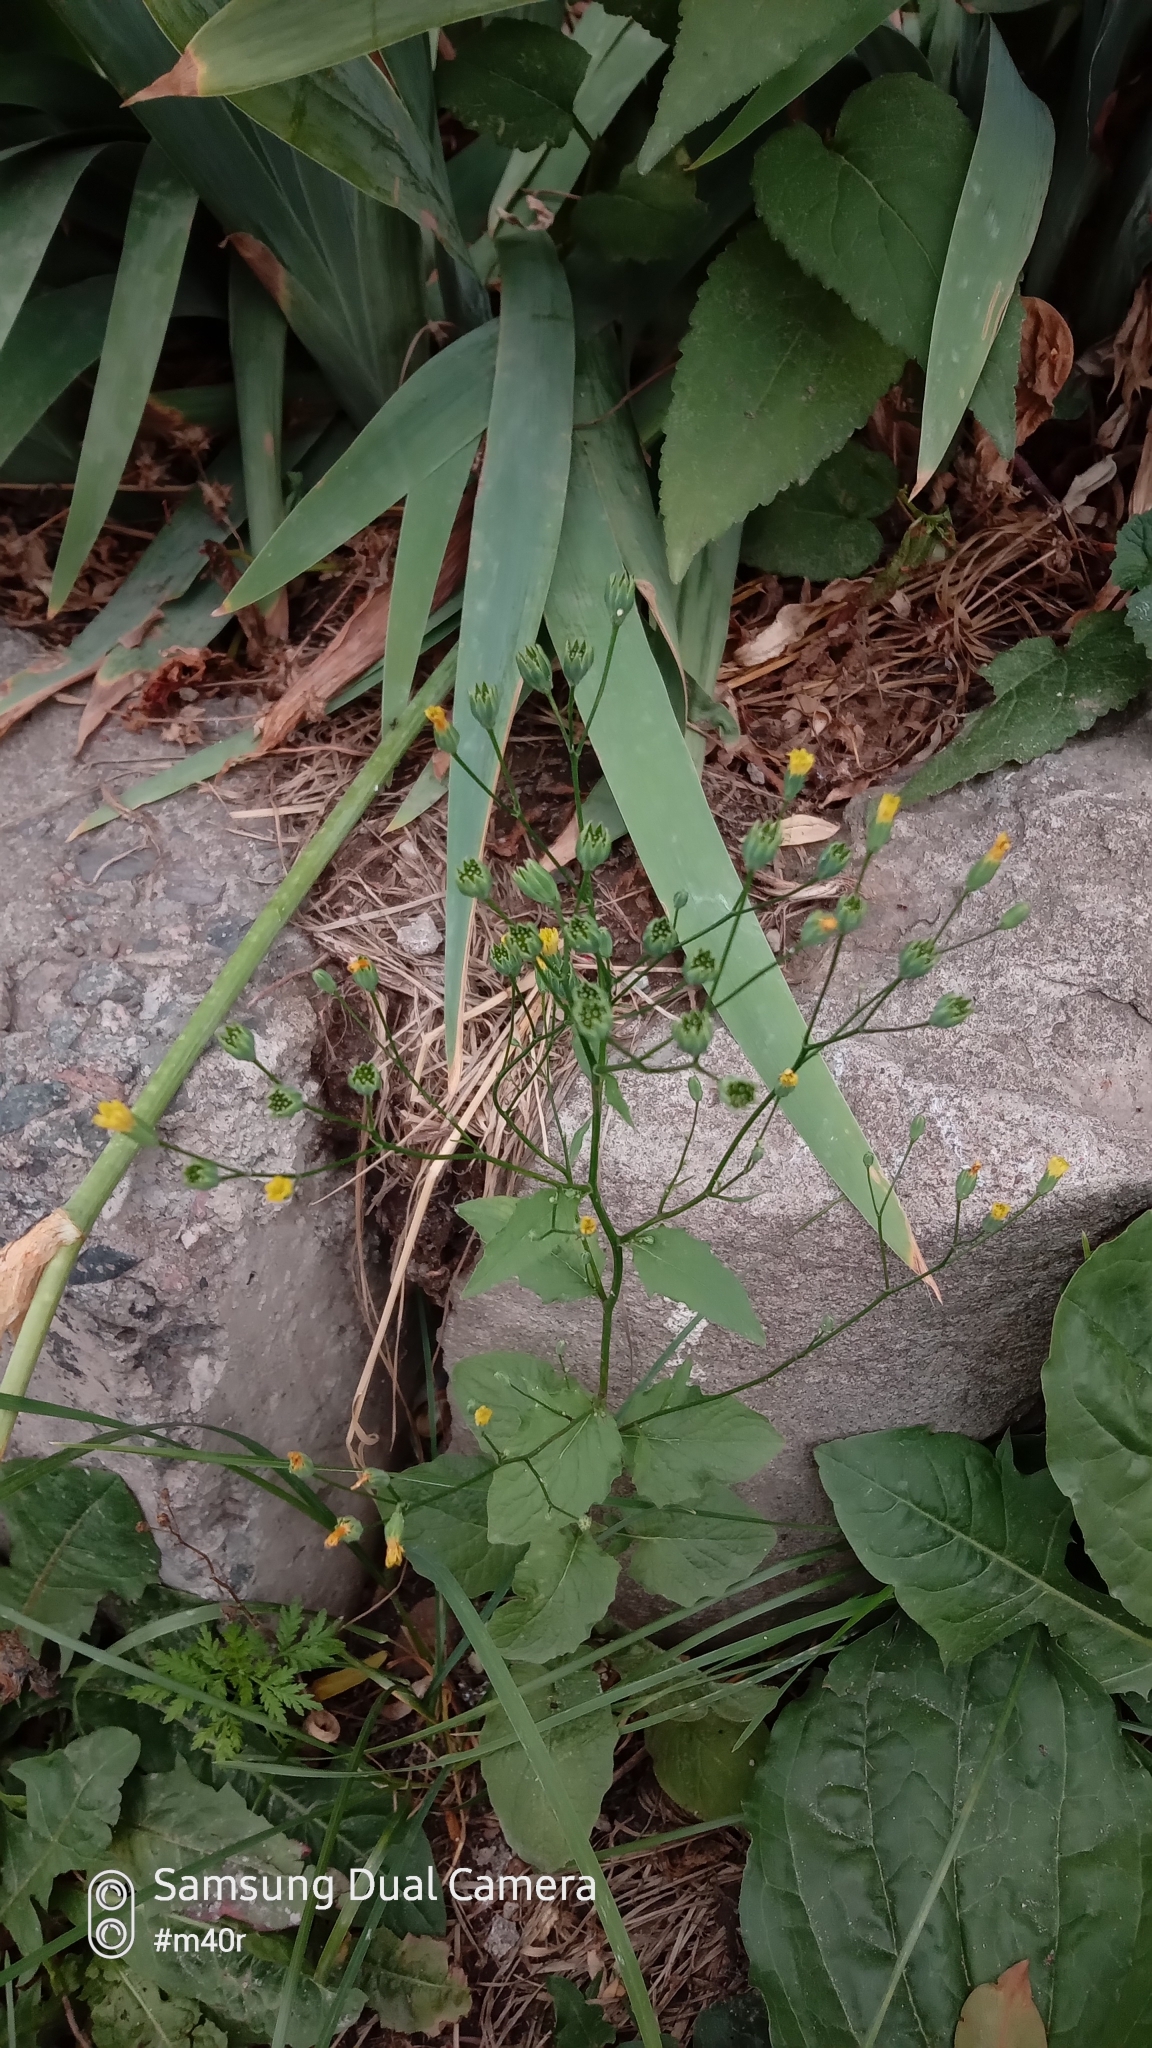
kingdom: Plantae
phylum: Tracheophyta
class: Magnoliopsida
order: Asterales
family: Asteraceae
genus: Lapsana
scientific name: Lapsana communis
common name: Nipplewort
